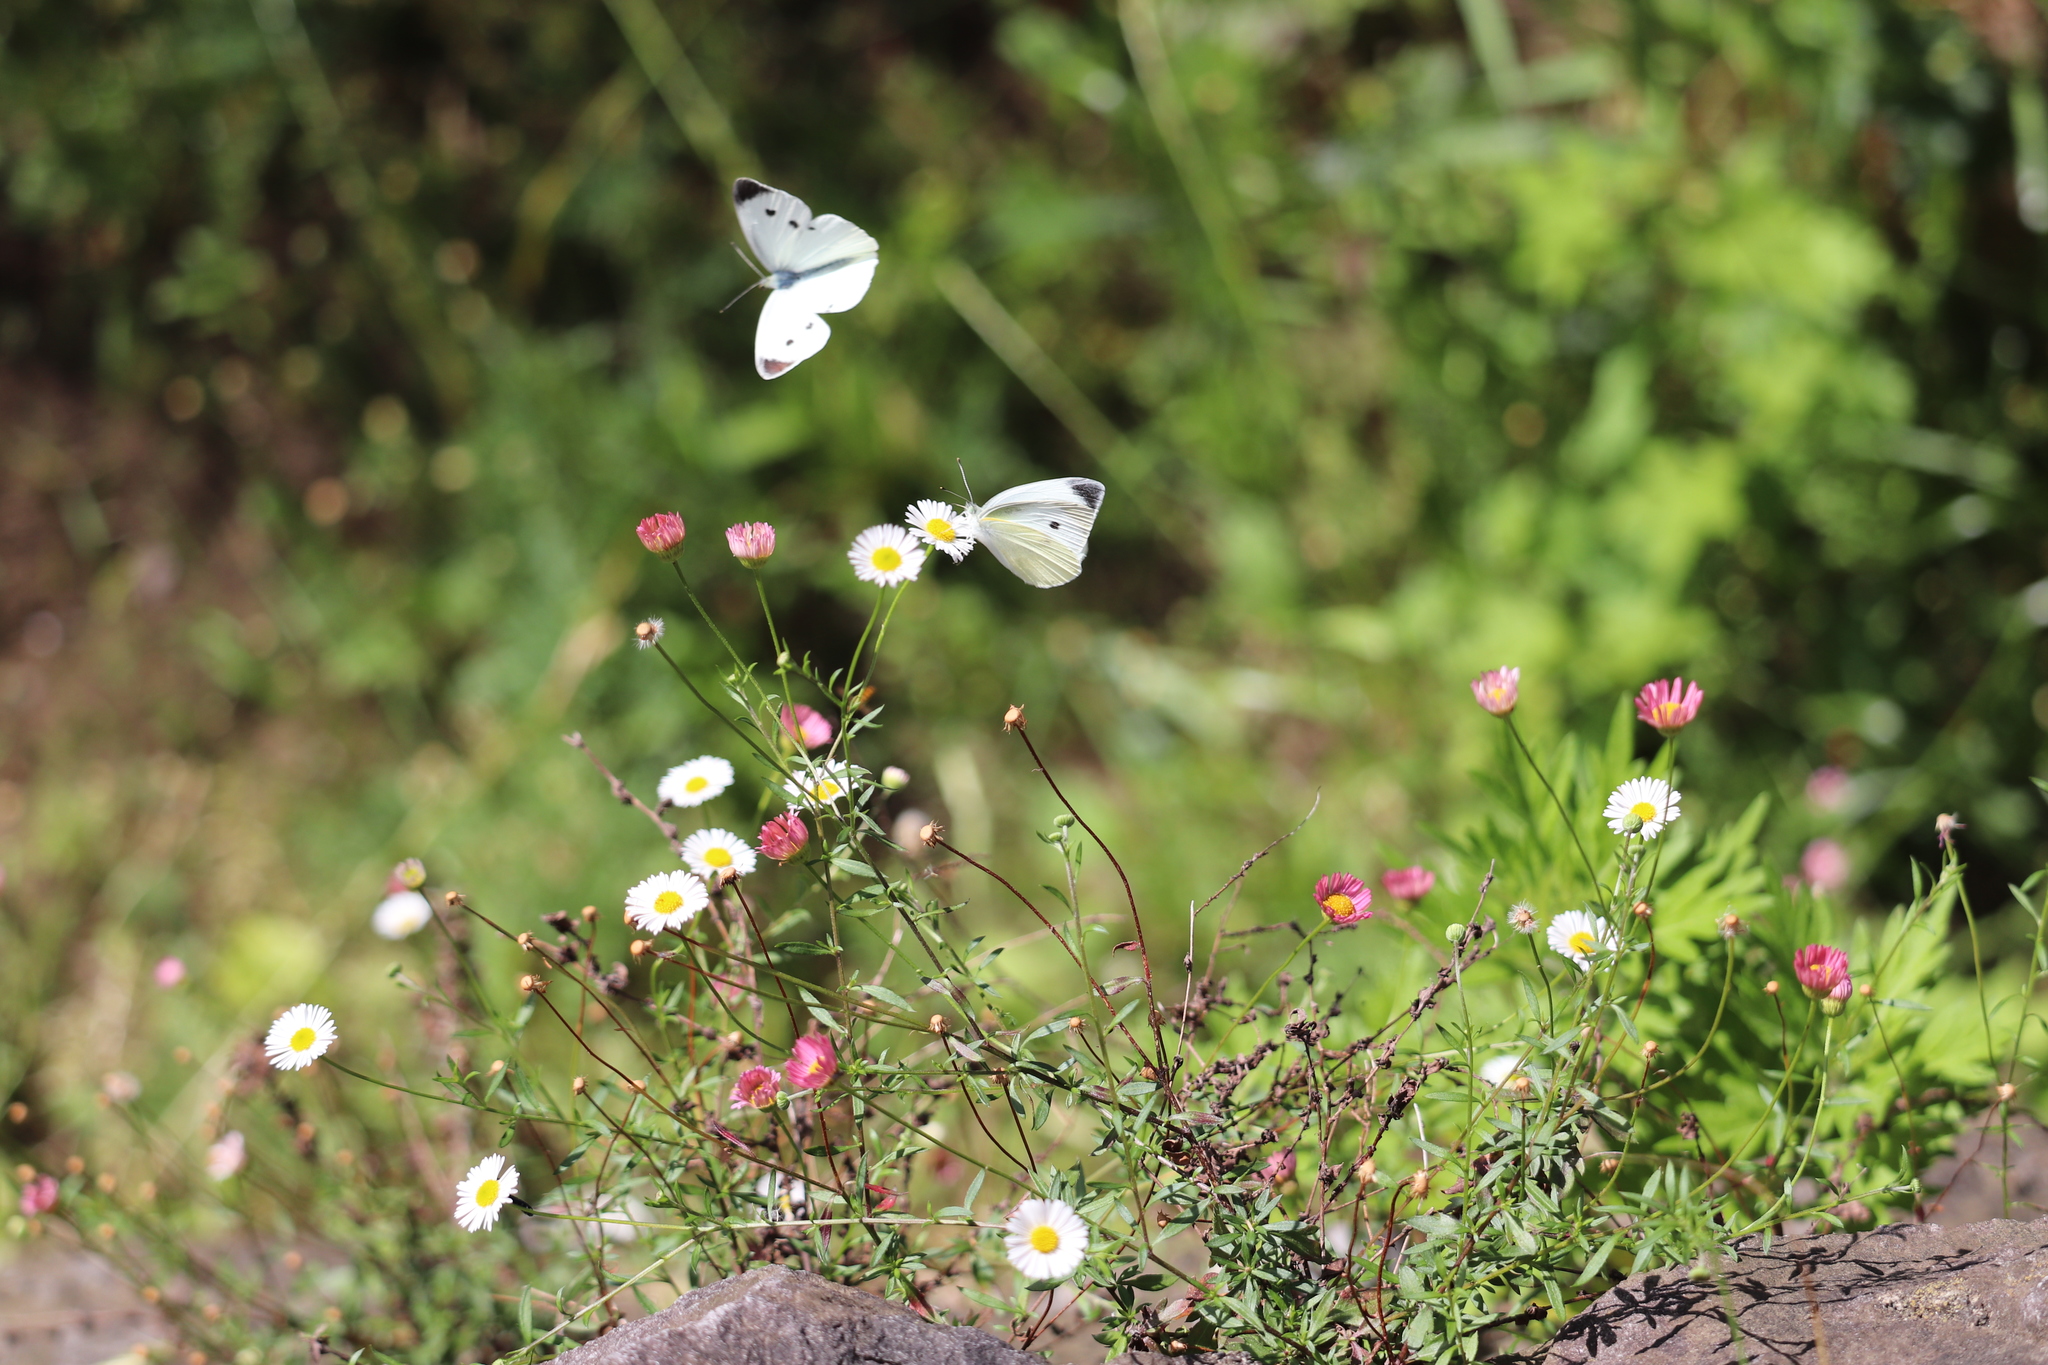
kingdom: Animalia
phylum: Arthropoda
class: Insecta
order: Lepidoptera
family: Pieridae
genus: Pieris
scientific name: Pieris rapae
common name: Small white
